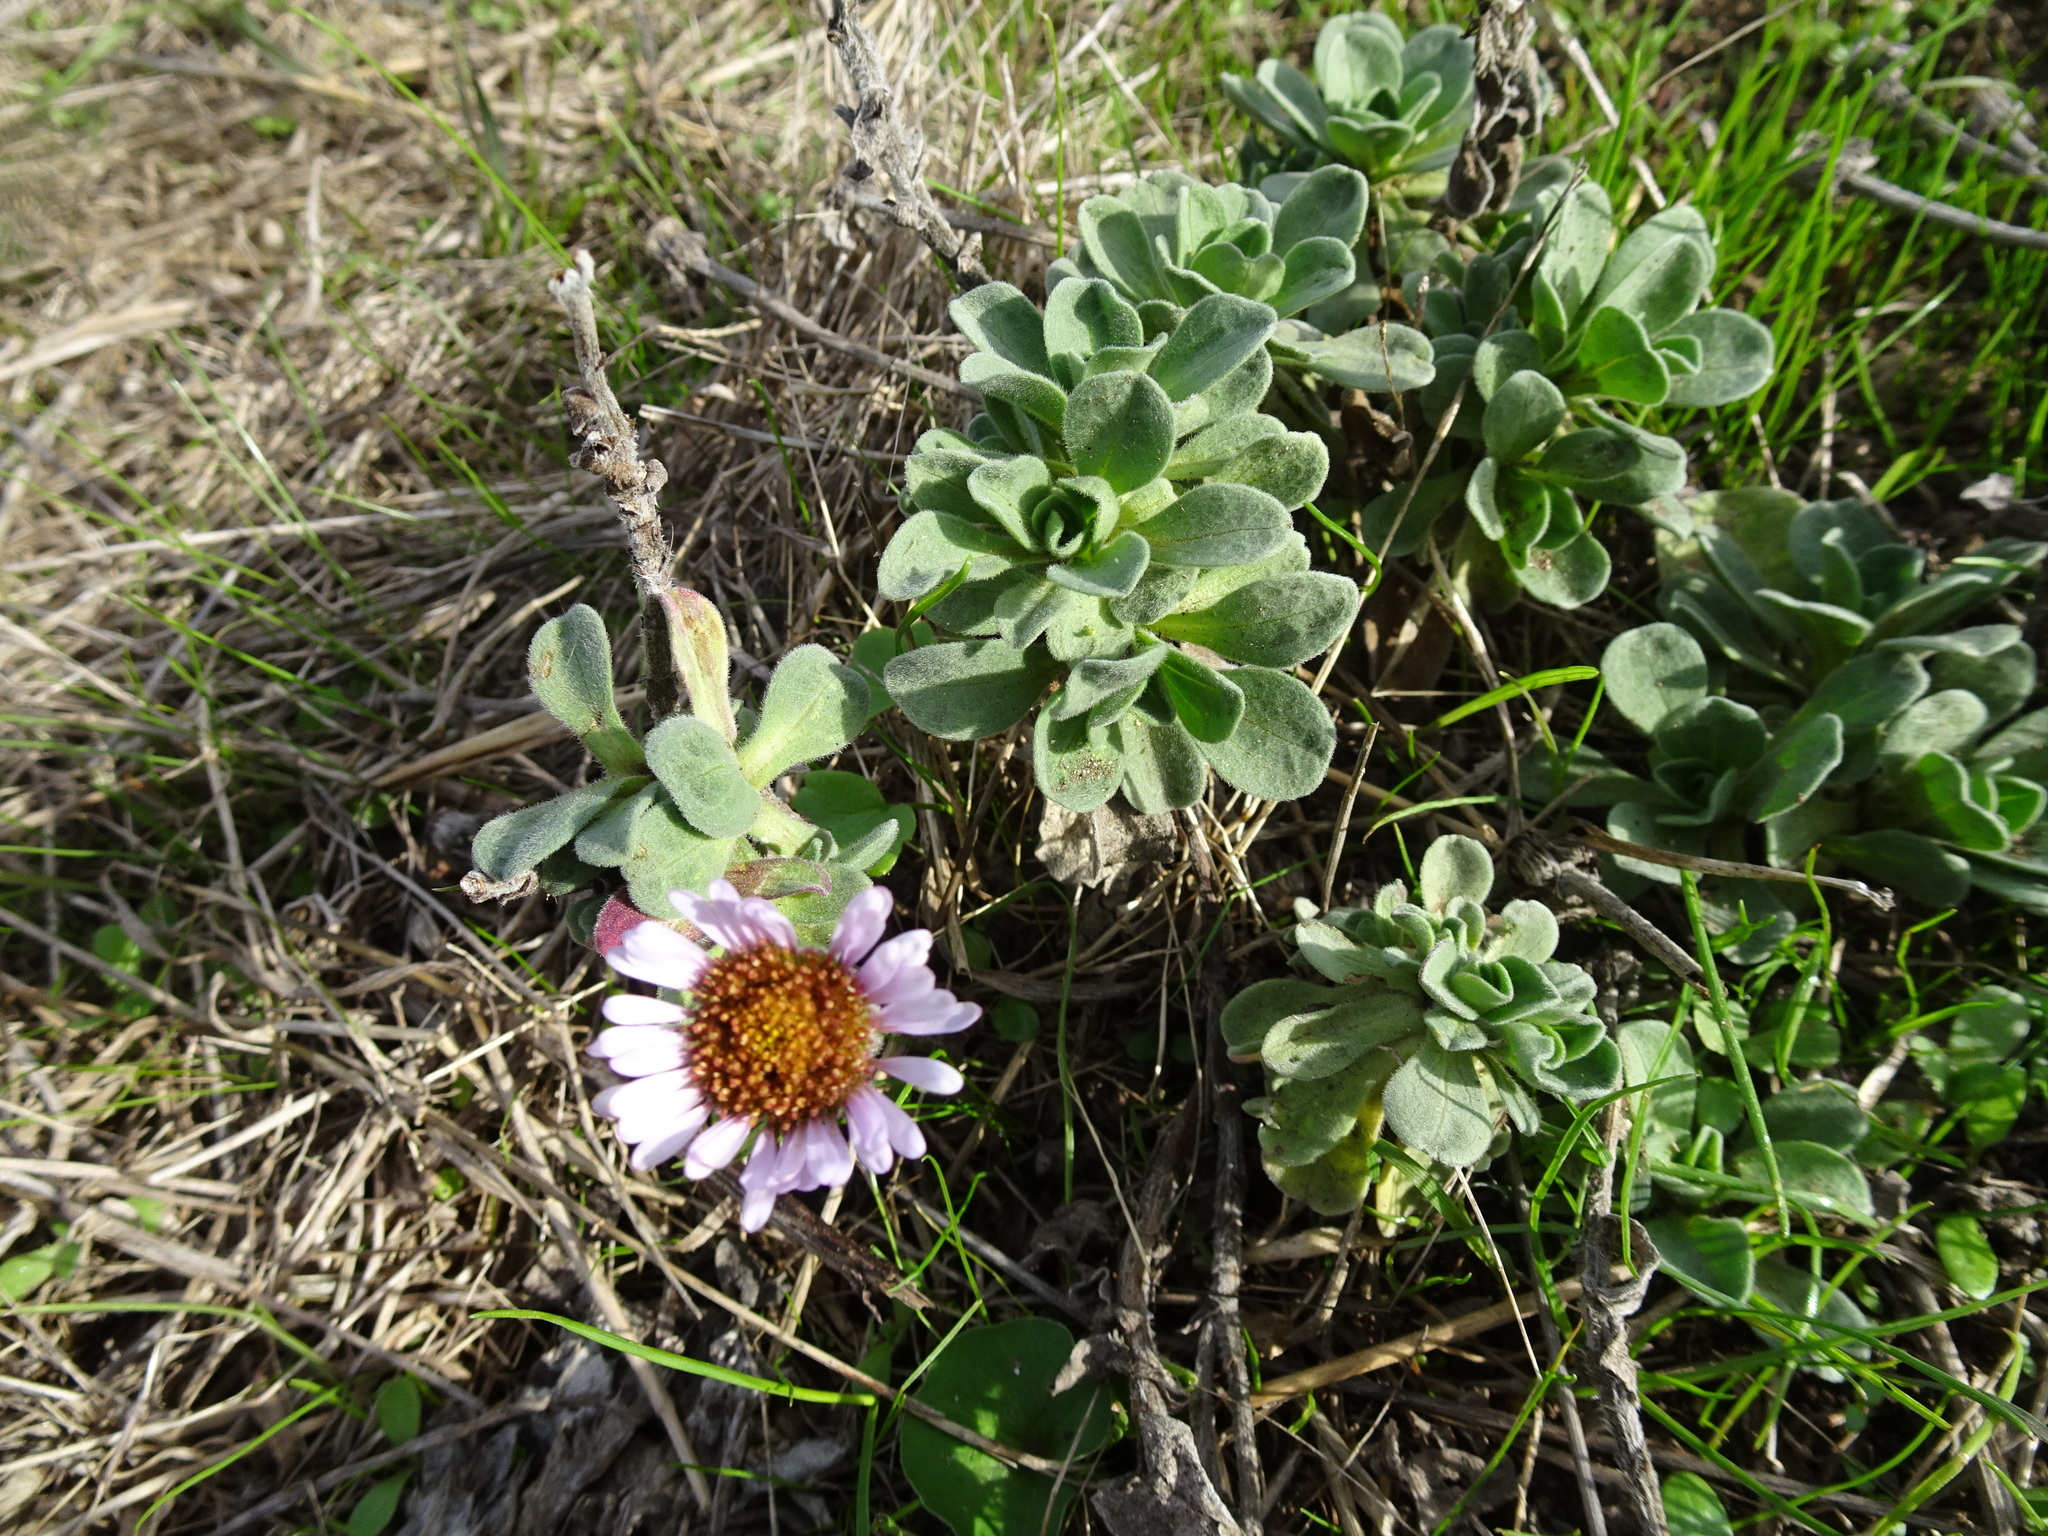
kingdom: Plantae
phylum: Tracheophyta
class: Magnoliopsida
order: Asterales
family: Asteraceae
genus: Erigeron
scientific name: Erigeron glaucus
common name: Seaside daisy
